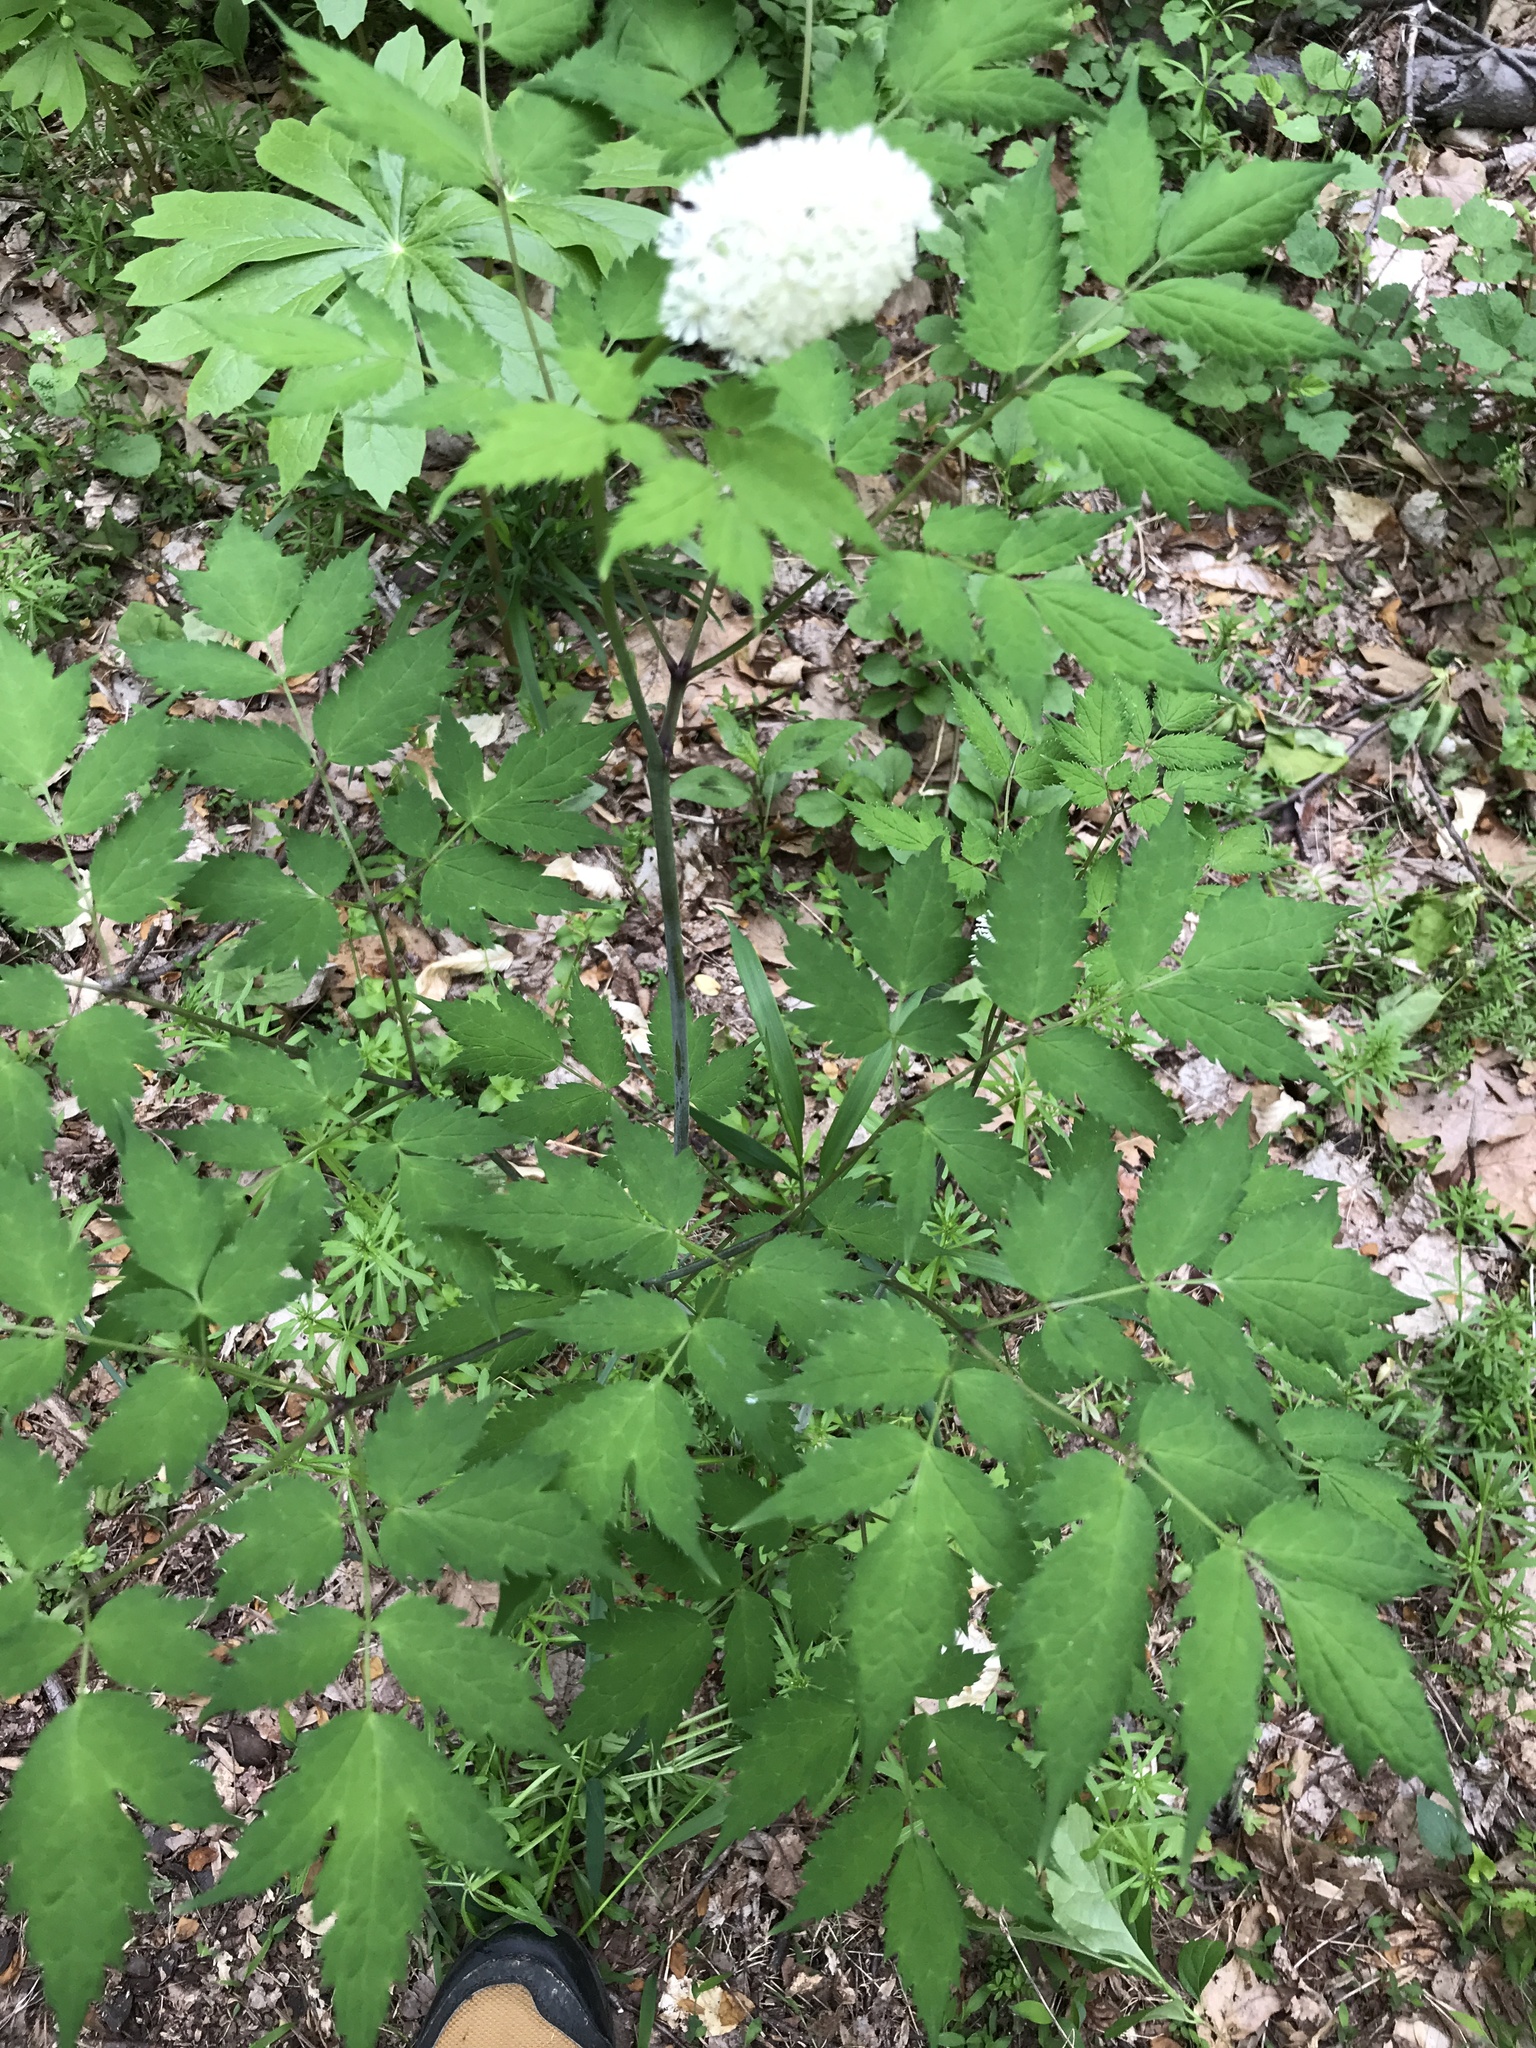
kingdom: Plantae
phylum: Tracheophyta
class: Magnoliopsida
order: Ranunculales
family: Ranunculaceae
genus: Actaea
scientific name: Actaea pachypoda
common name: Doll's-eyes
